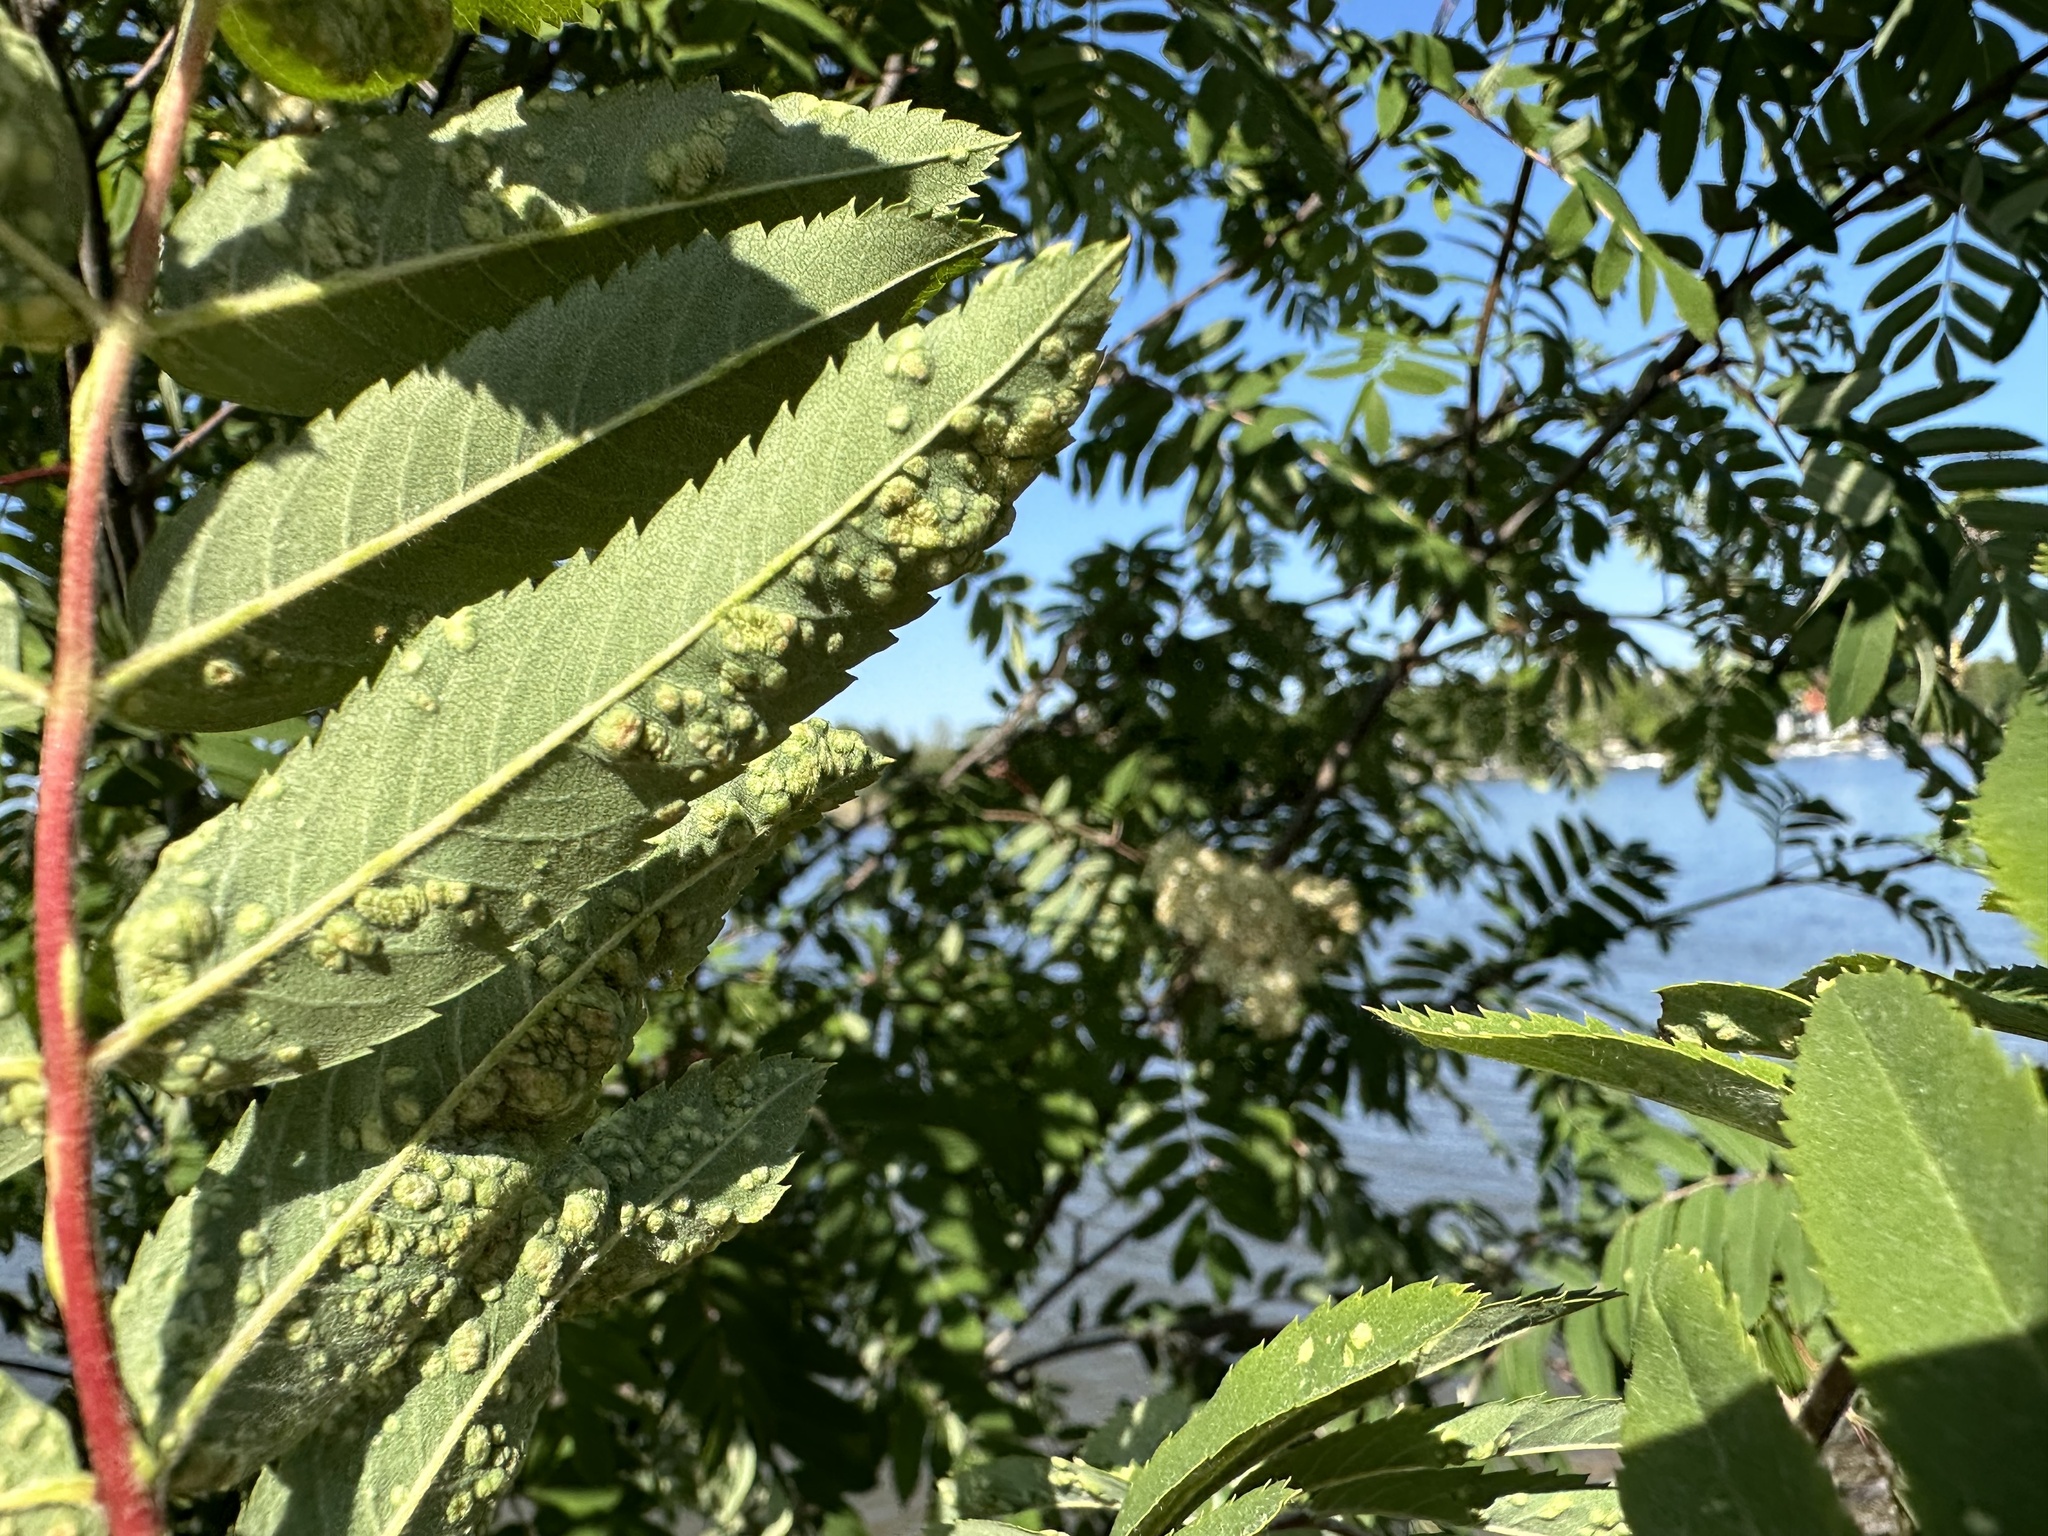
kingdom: Animalia
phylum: Arthropoda
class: Arachnida
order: Trombidiformes
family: Eriophyidae
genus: Eriophyes
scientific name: Eriophyes sorbi
